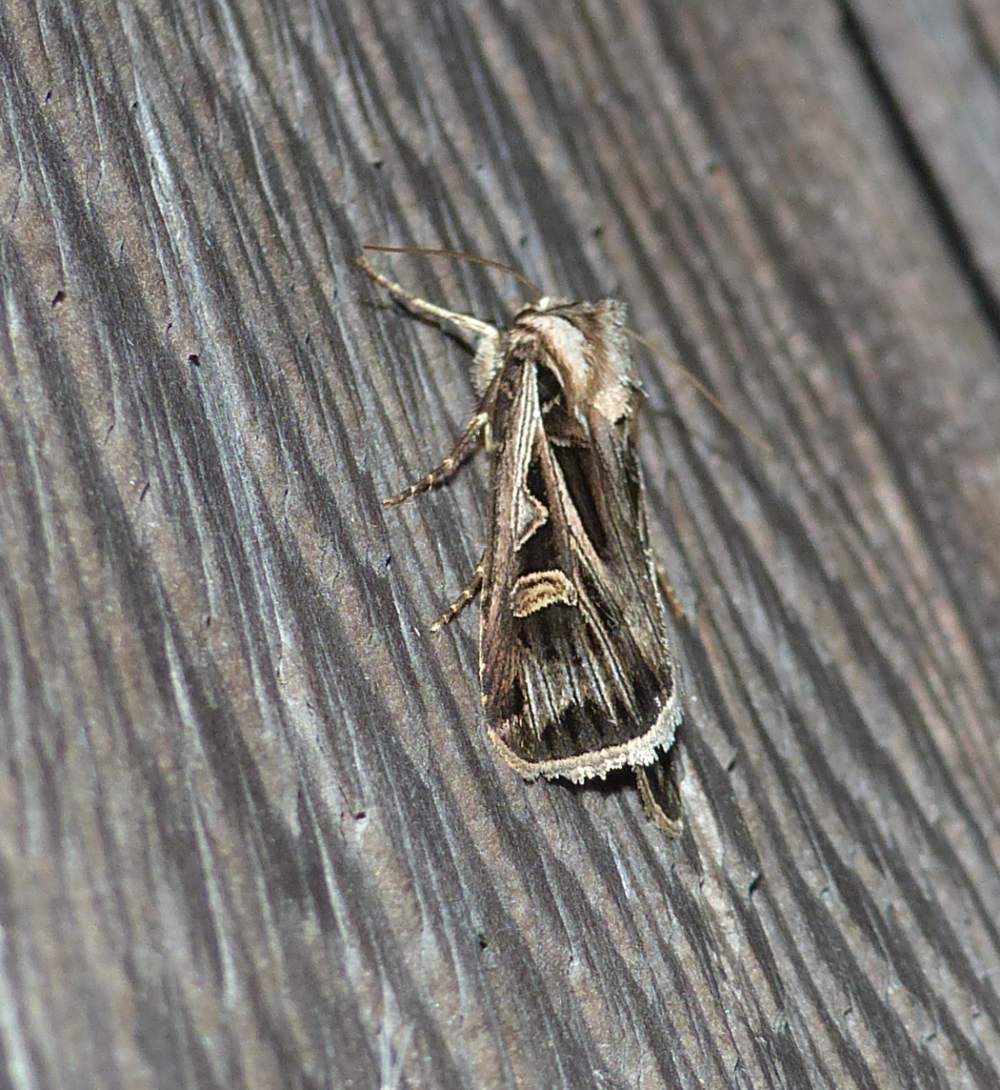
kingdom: Animalia
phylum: Arthropoda
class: Insecta
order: Lepidoptera
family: Noctuidae
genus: Feltia
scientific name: Feltia jaculifera
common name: Dingy cutworm moth
